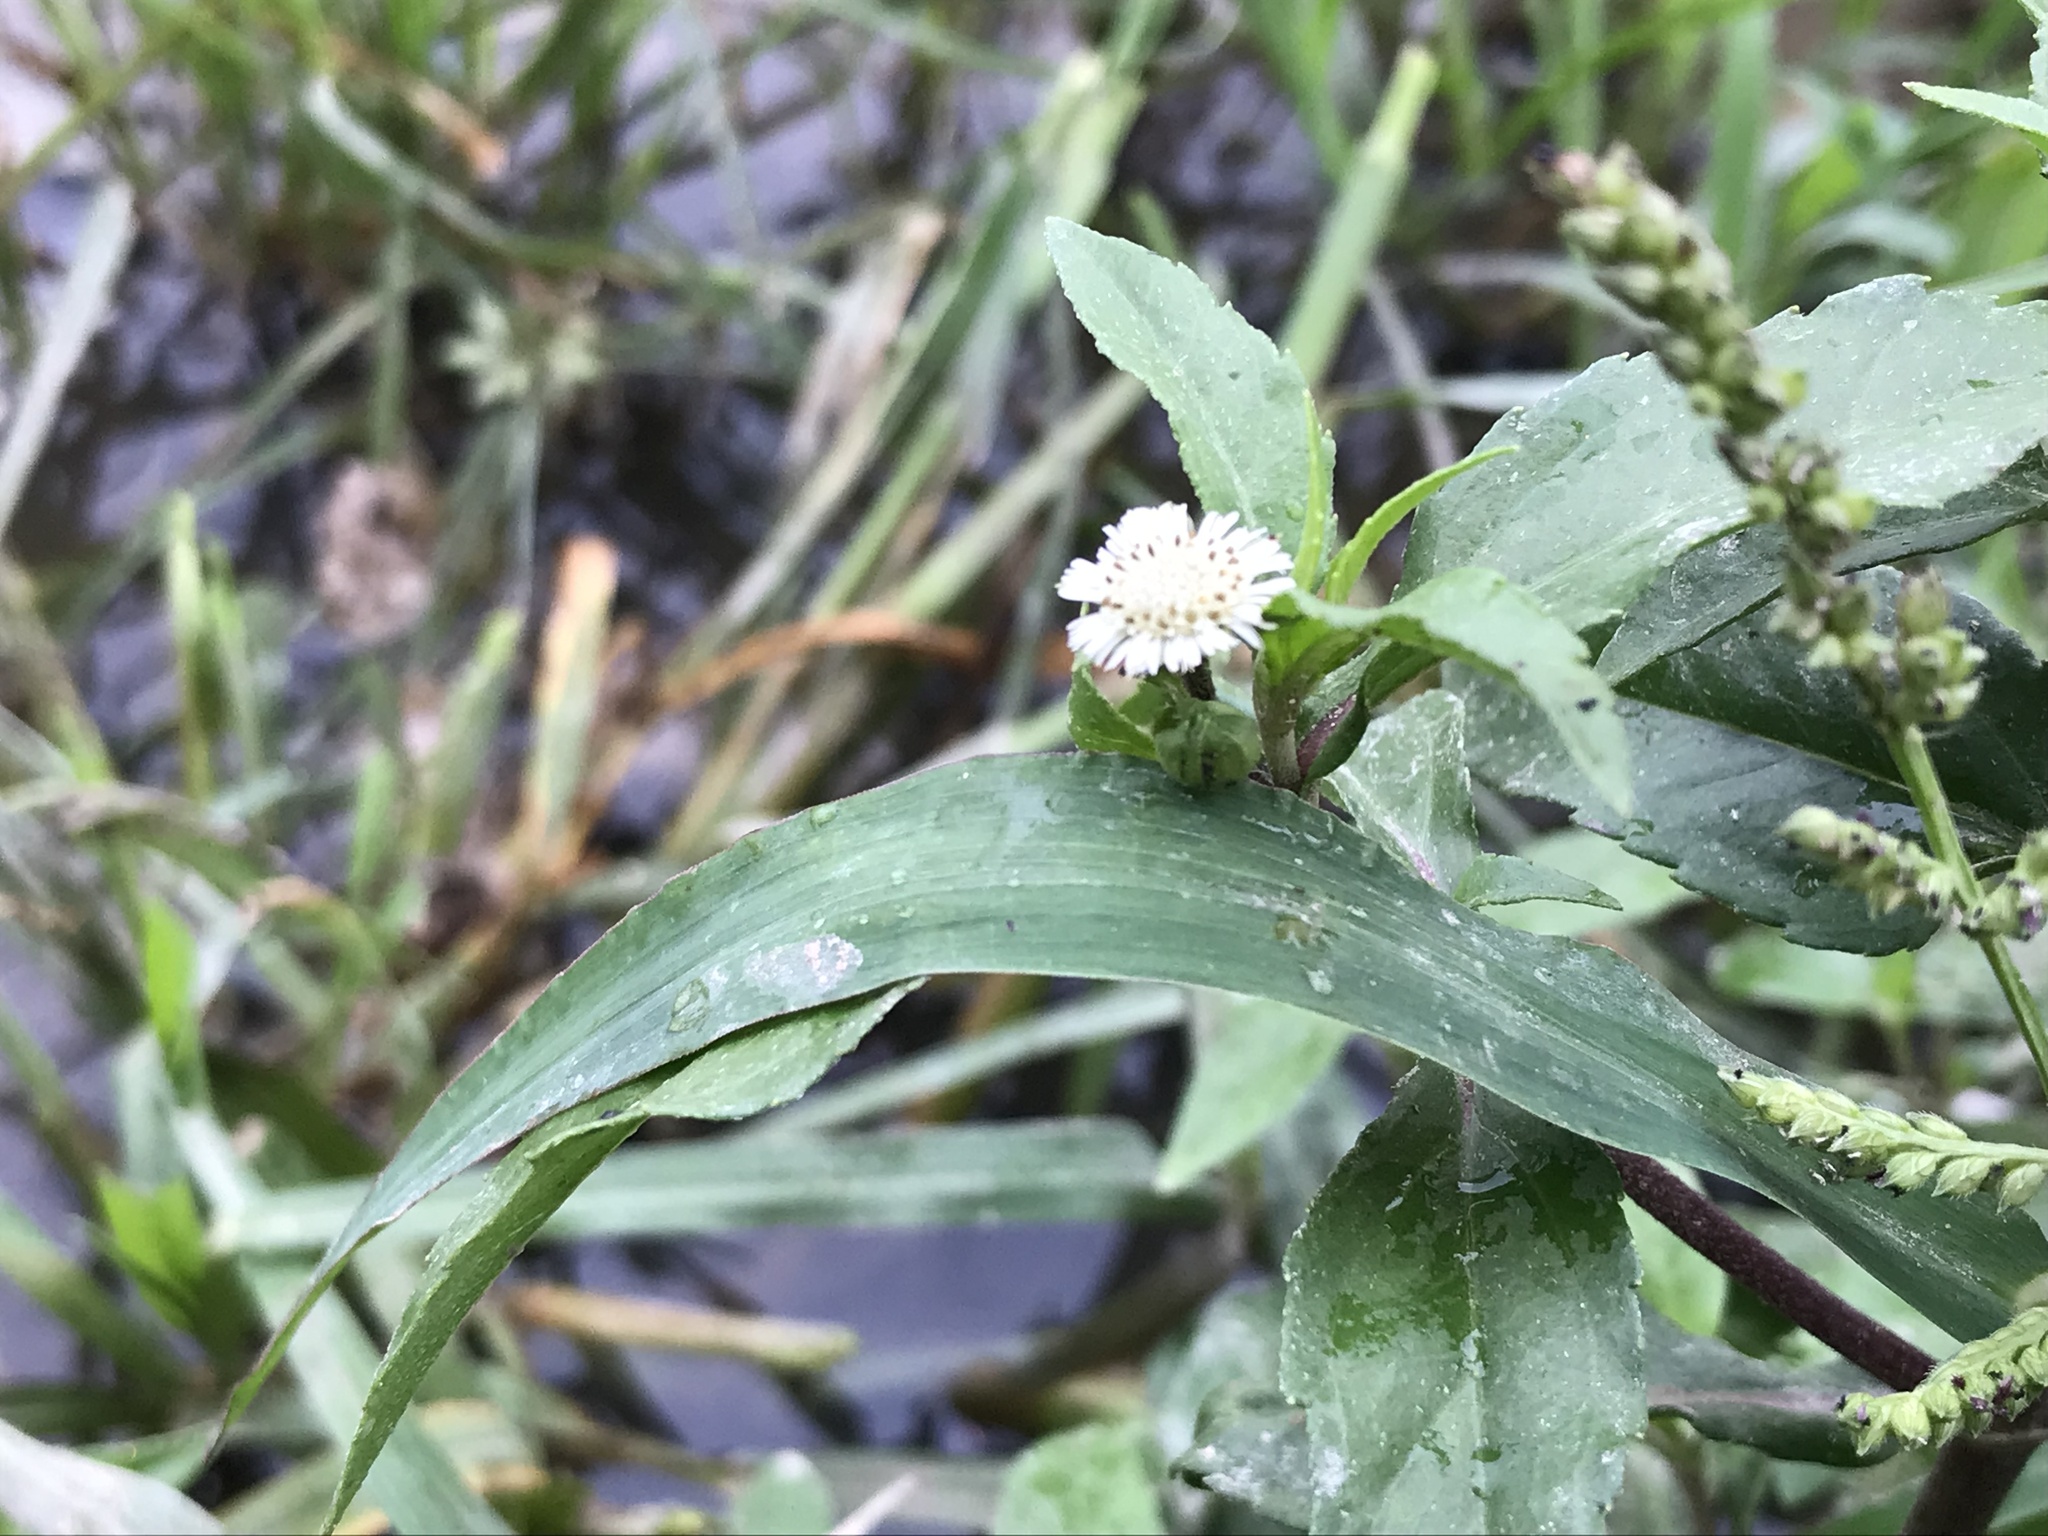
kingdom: Plantae
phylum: Tracheophyta
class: Magnoliopsida
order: Asterales
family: Asteraceae
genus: Eclipta
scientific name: Eclipta prostrata
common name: False daisy
